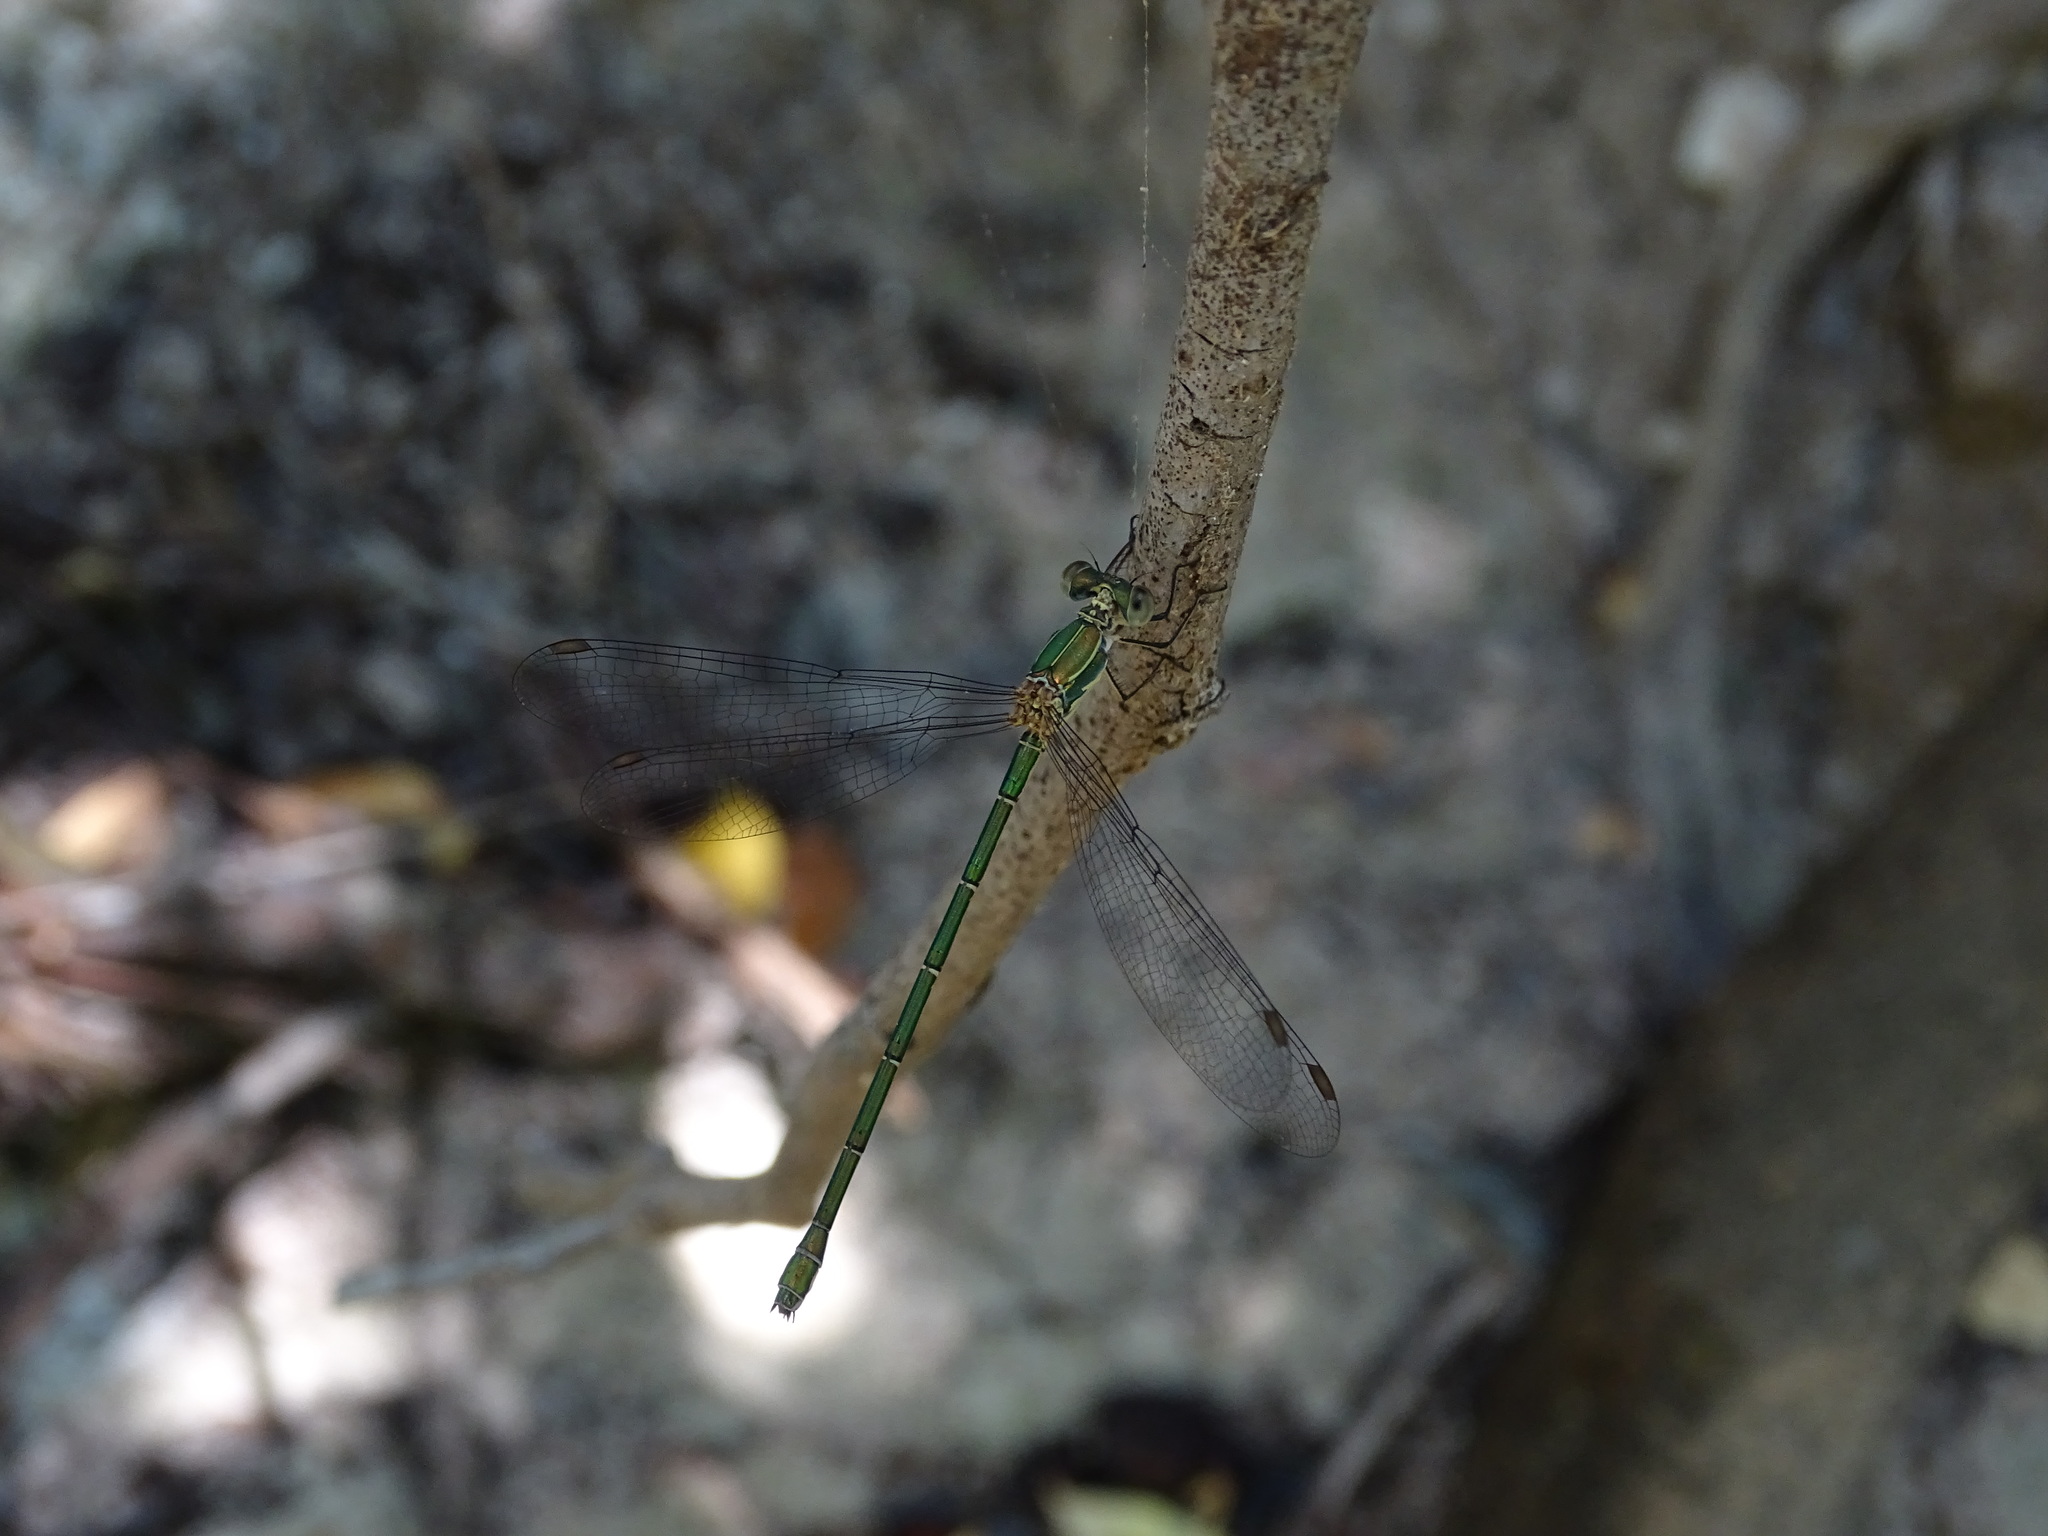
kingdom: Animalia
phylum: Arthropoda
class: Insecta
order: Odonata
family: Lestidae
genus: Chalcolestes
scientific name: Chalcolestes parvidens
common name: Eastern willow spreadwing
